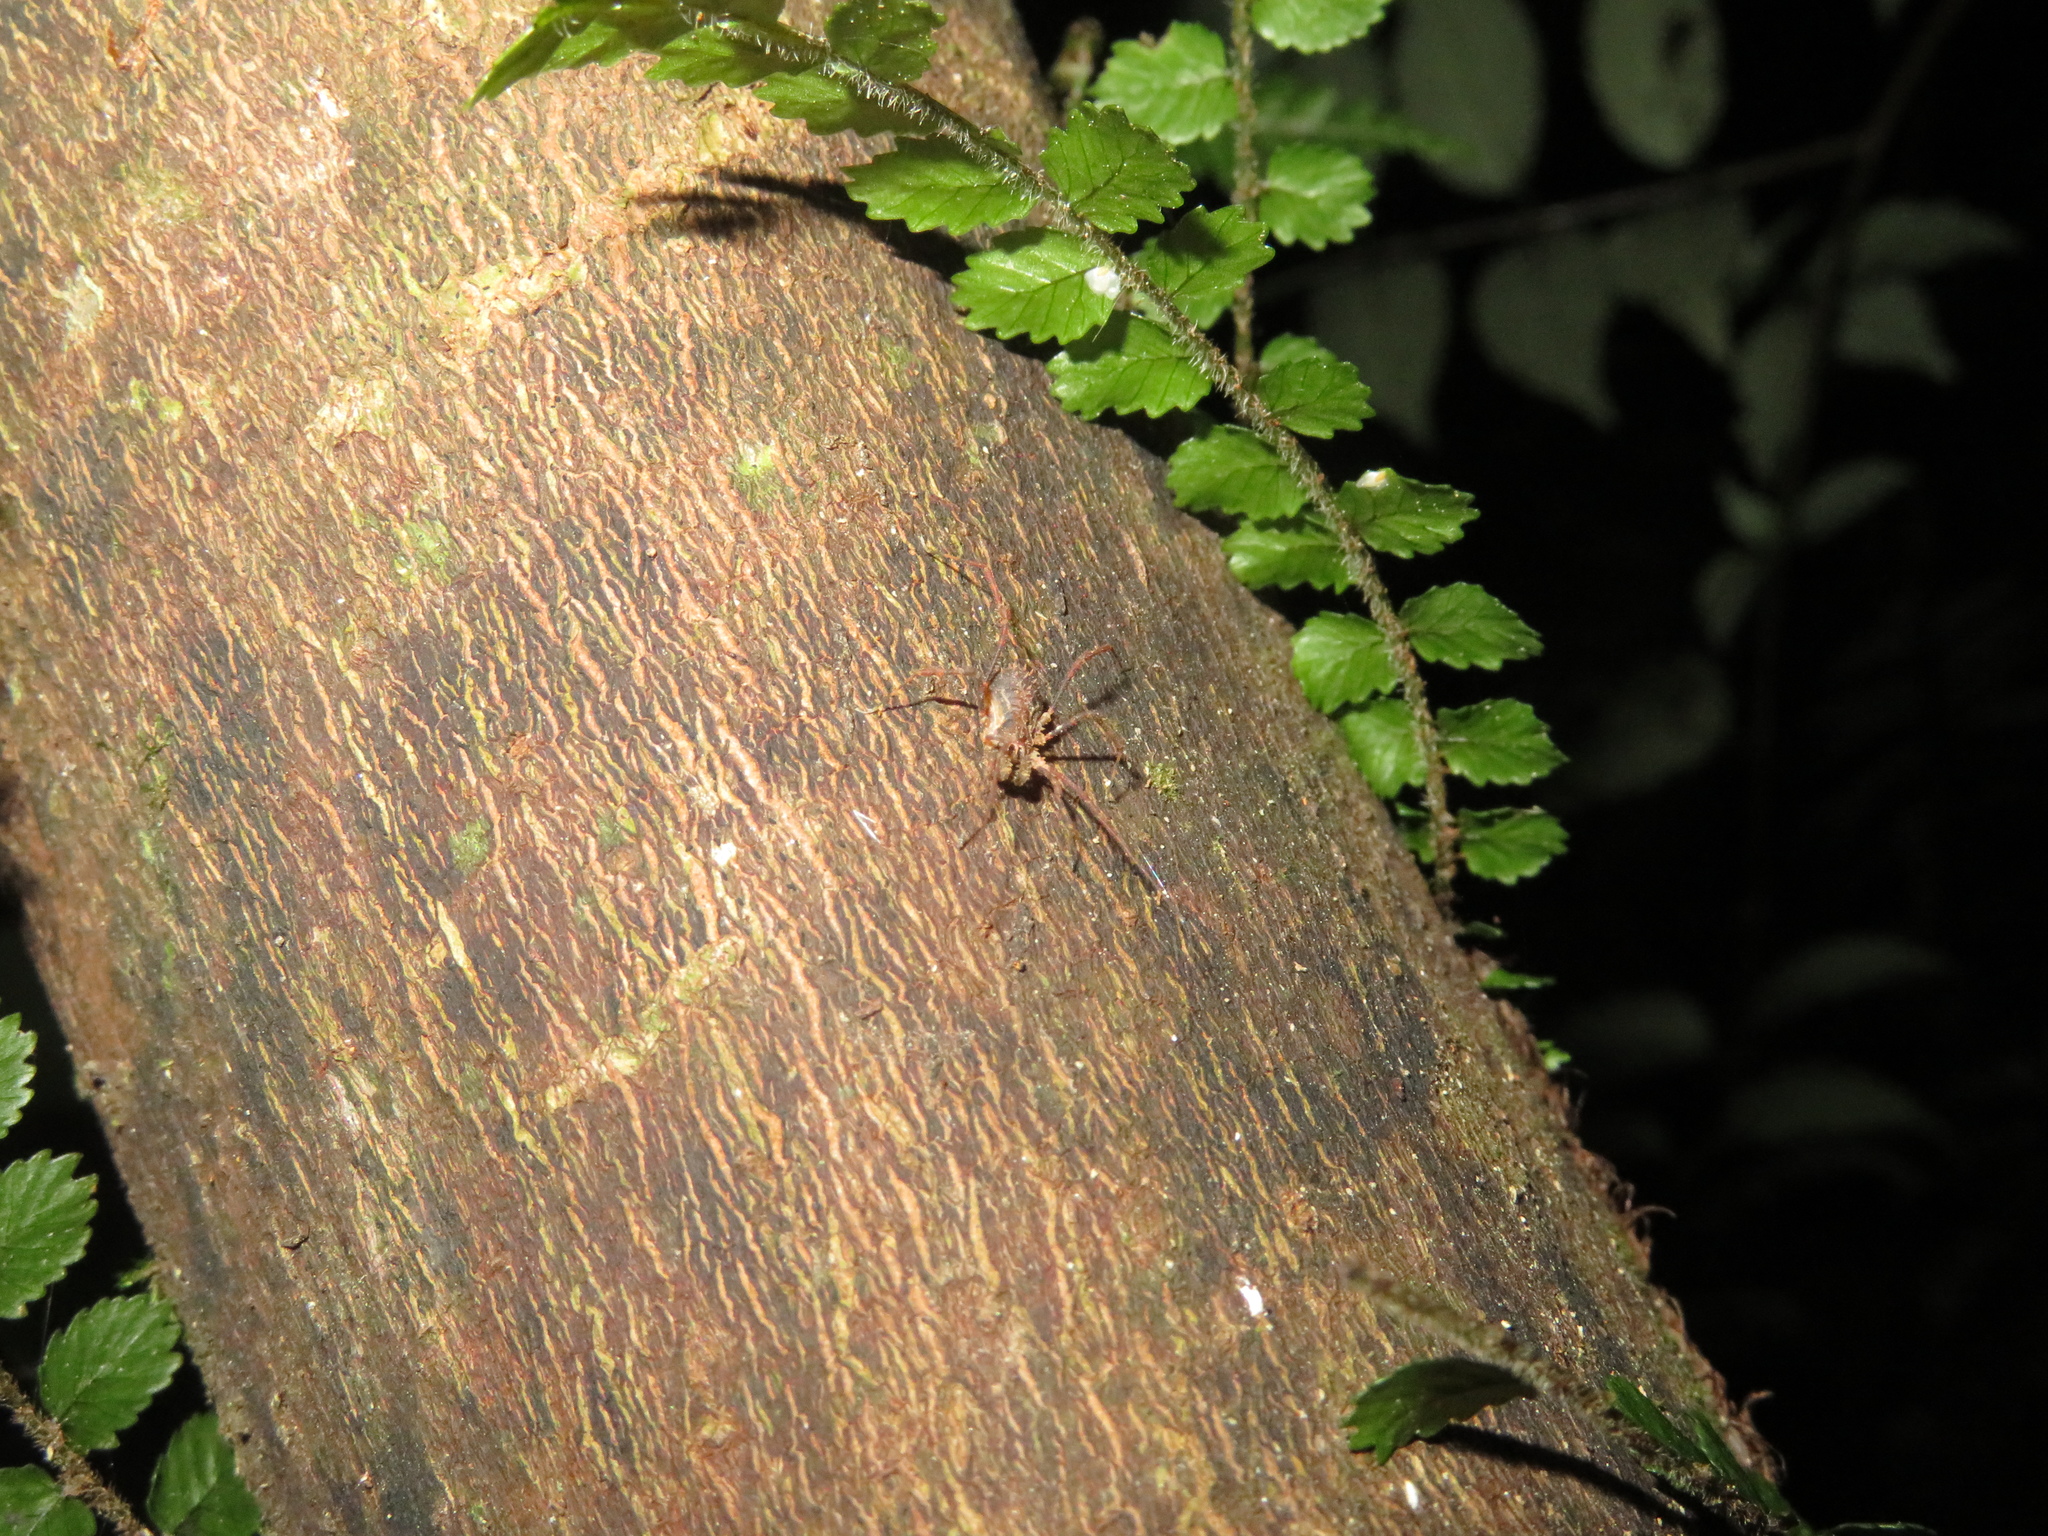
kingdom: Animalia
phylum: Arthropoda
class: Arachnida
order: Opiliones
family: Triaenonychidae
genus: Algidia
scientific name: Algidia chiltoni
